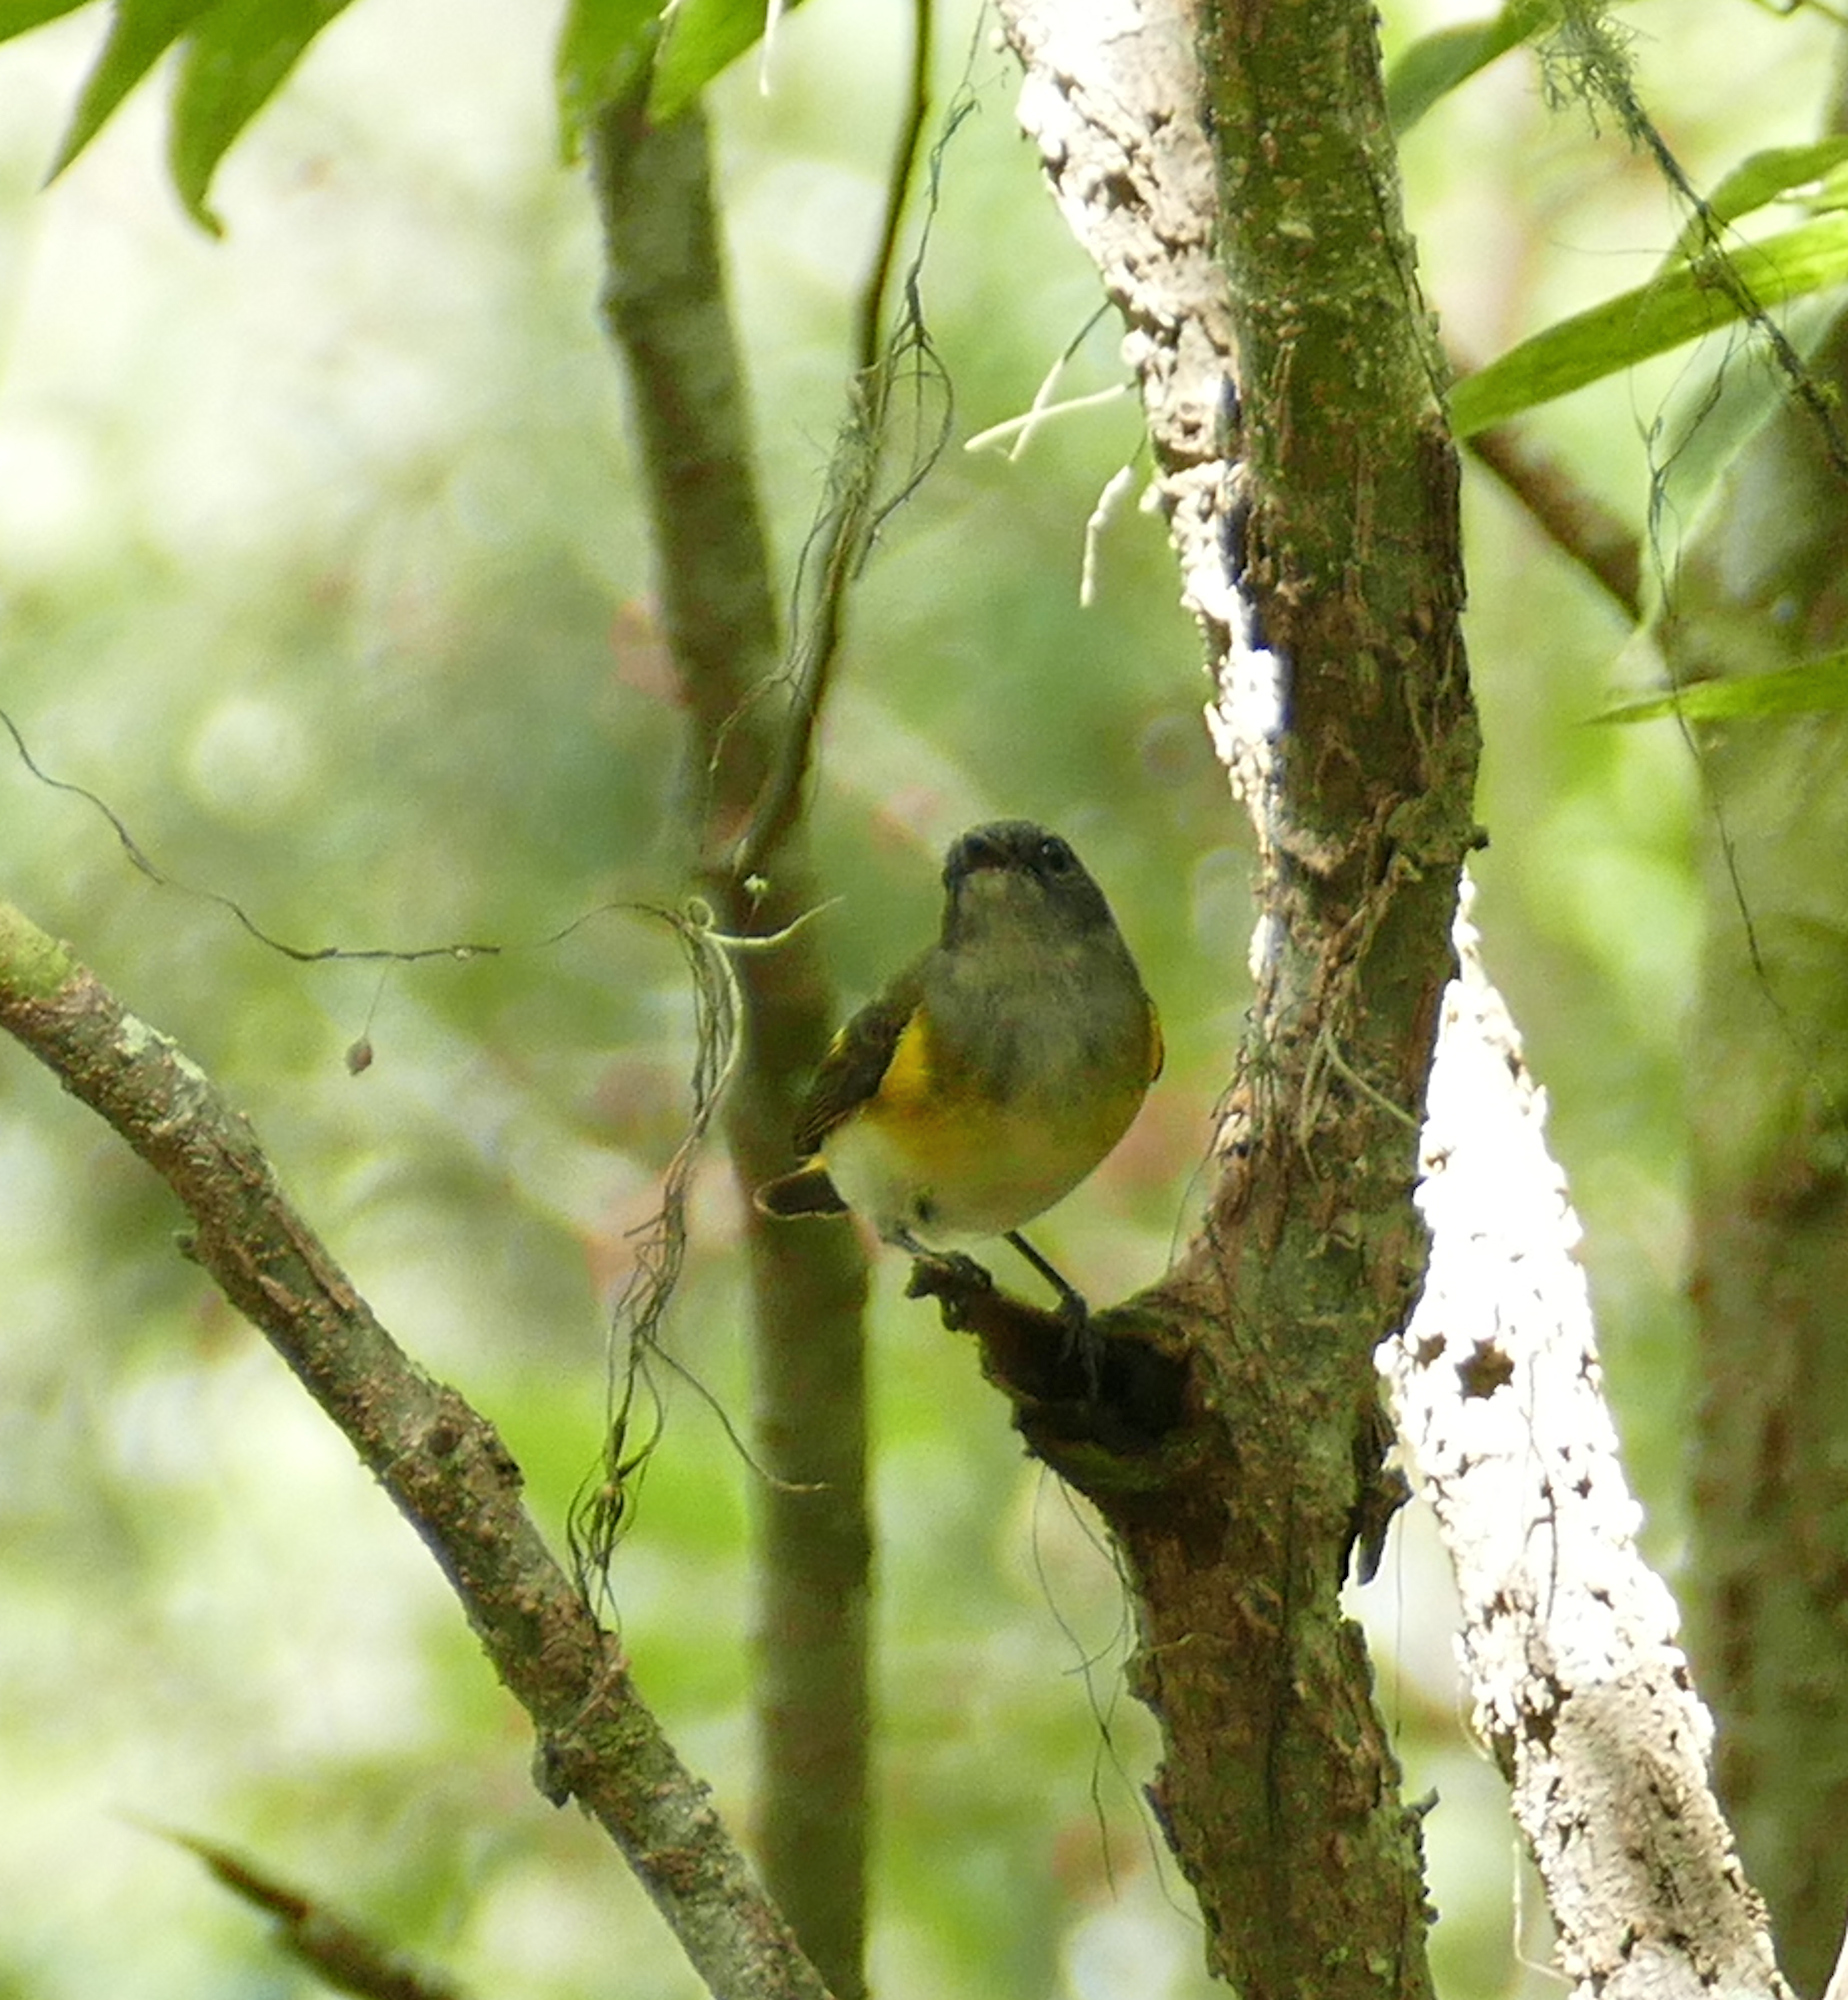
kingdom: Animalia
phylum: Chordata
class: Aves
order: Passeriformes
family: Parulidae
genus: Setophaga
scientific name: Setophaga ruticilla
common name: American redstart
